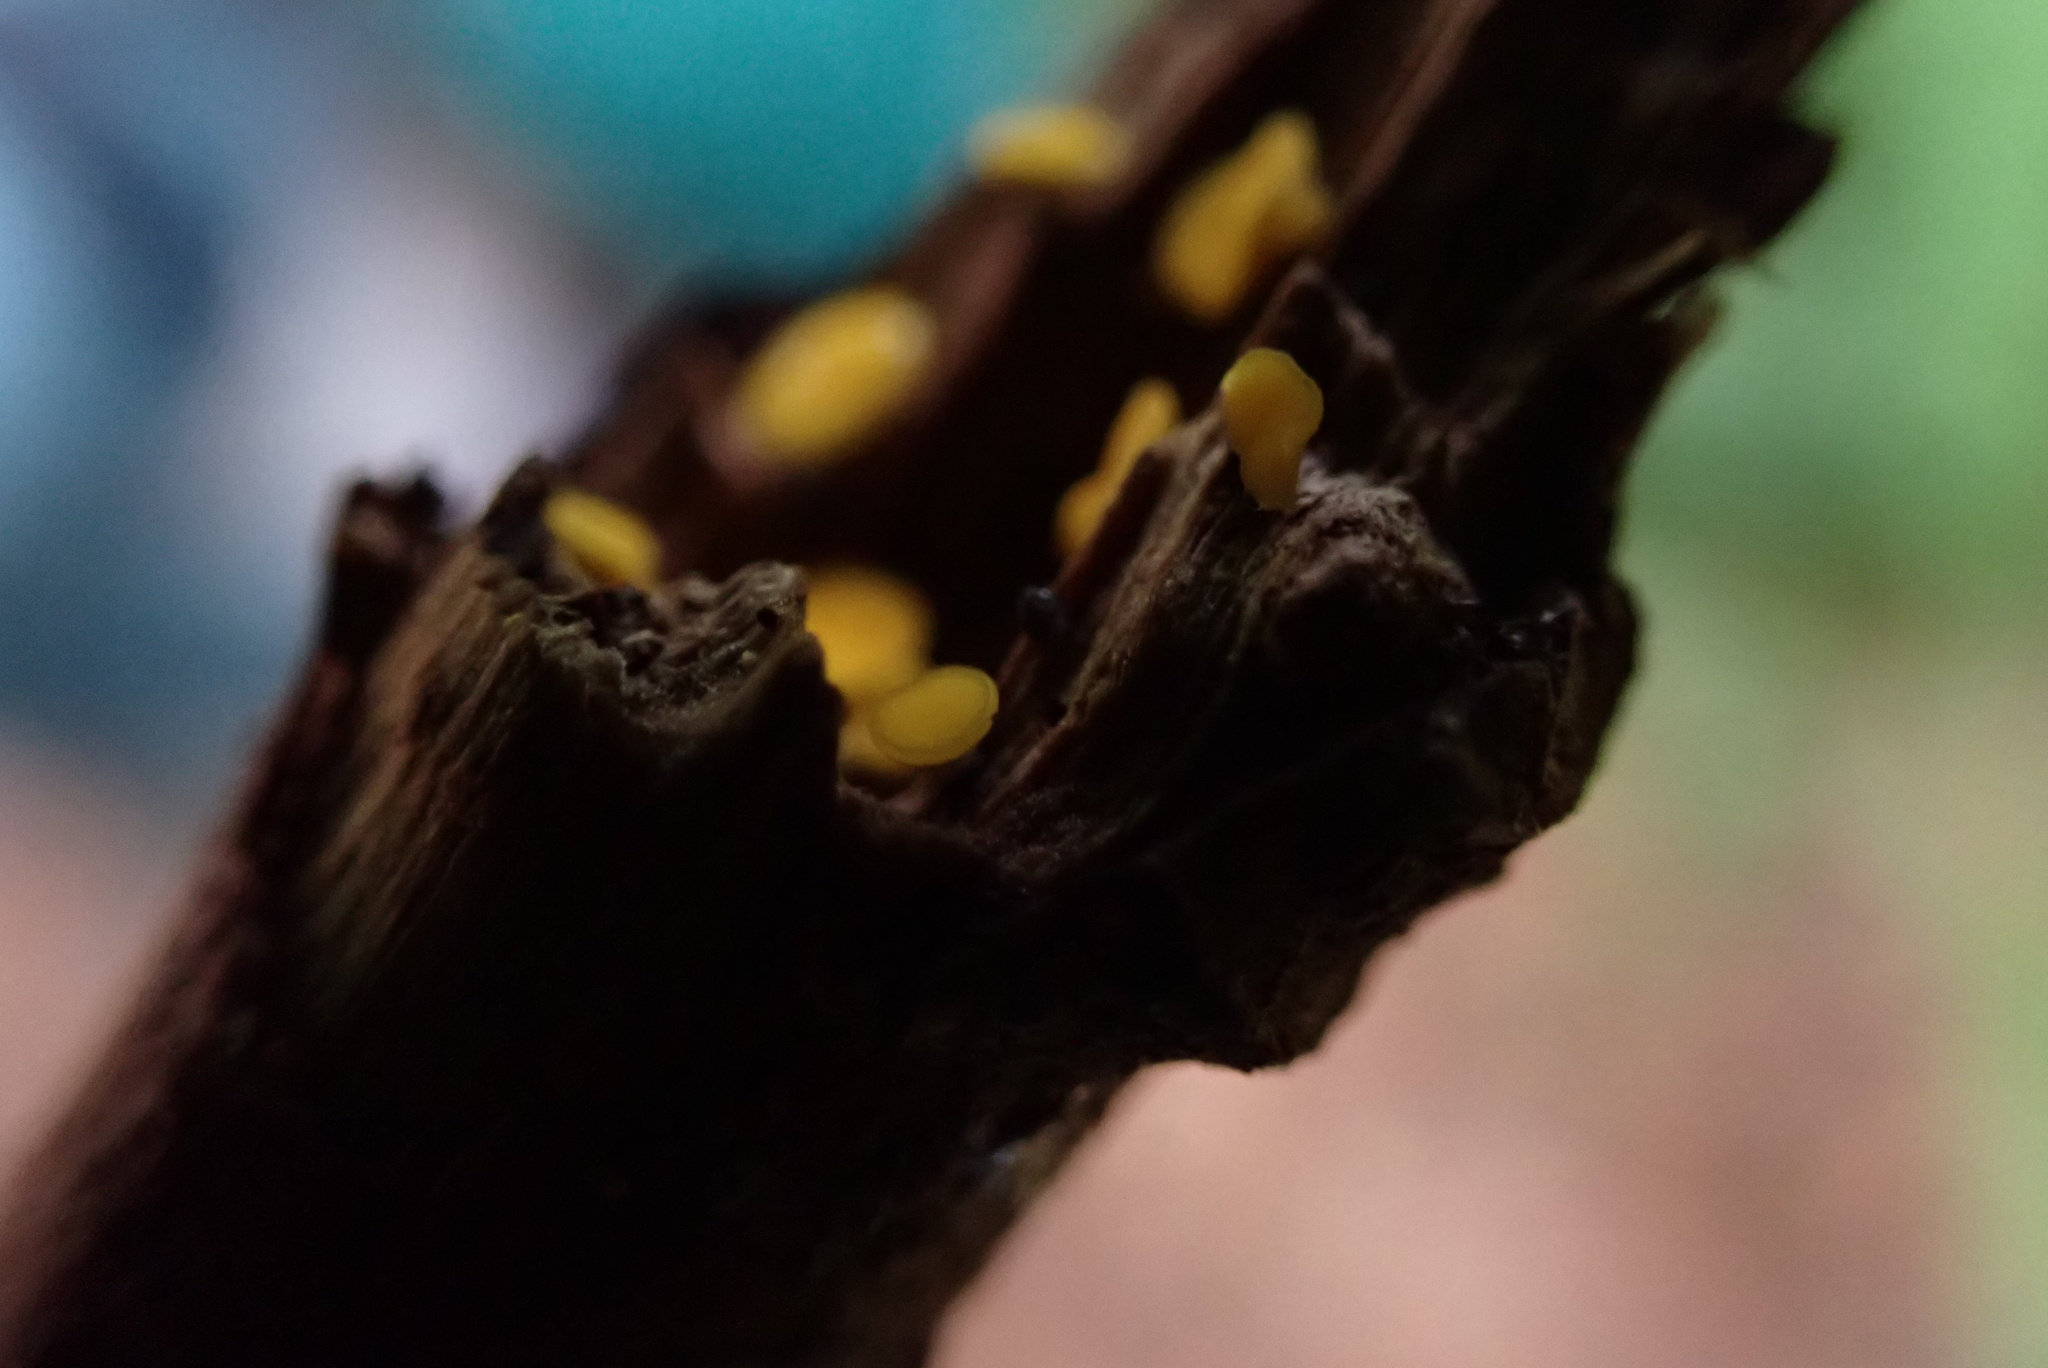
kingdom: Fungi
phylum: Ascomycota
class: Leotiomycetes
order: Helotiales
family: Pezizellaceae
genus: Calycina
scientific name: Calycina citrina
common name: Yellow fairy cups
